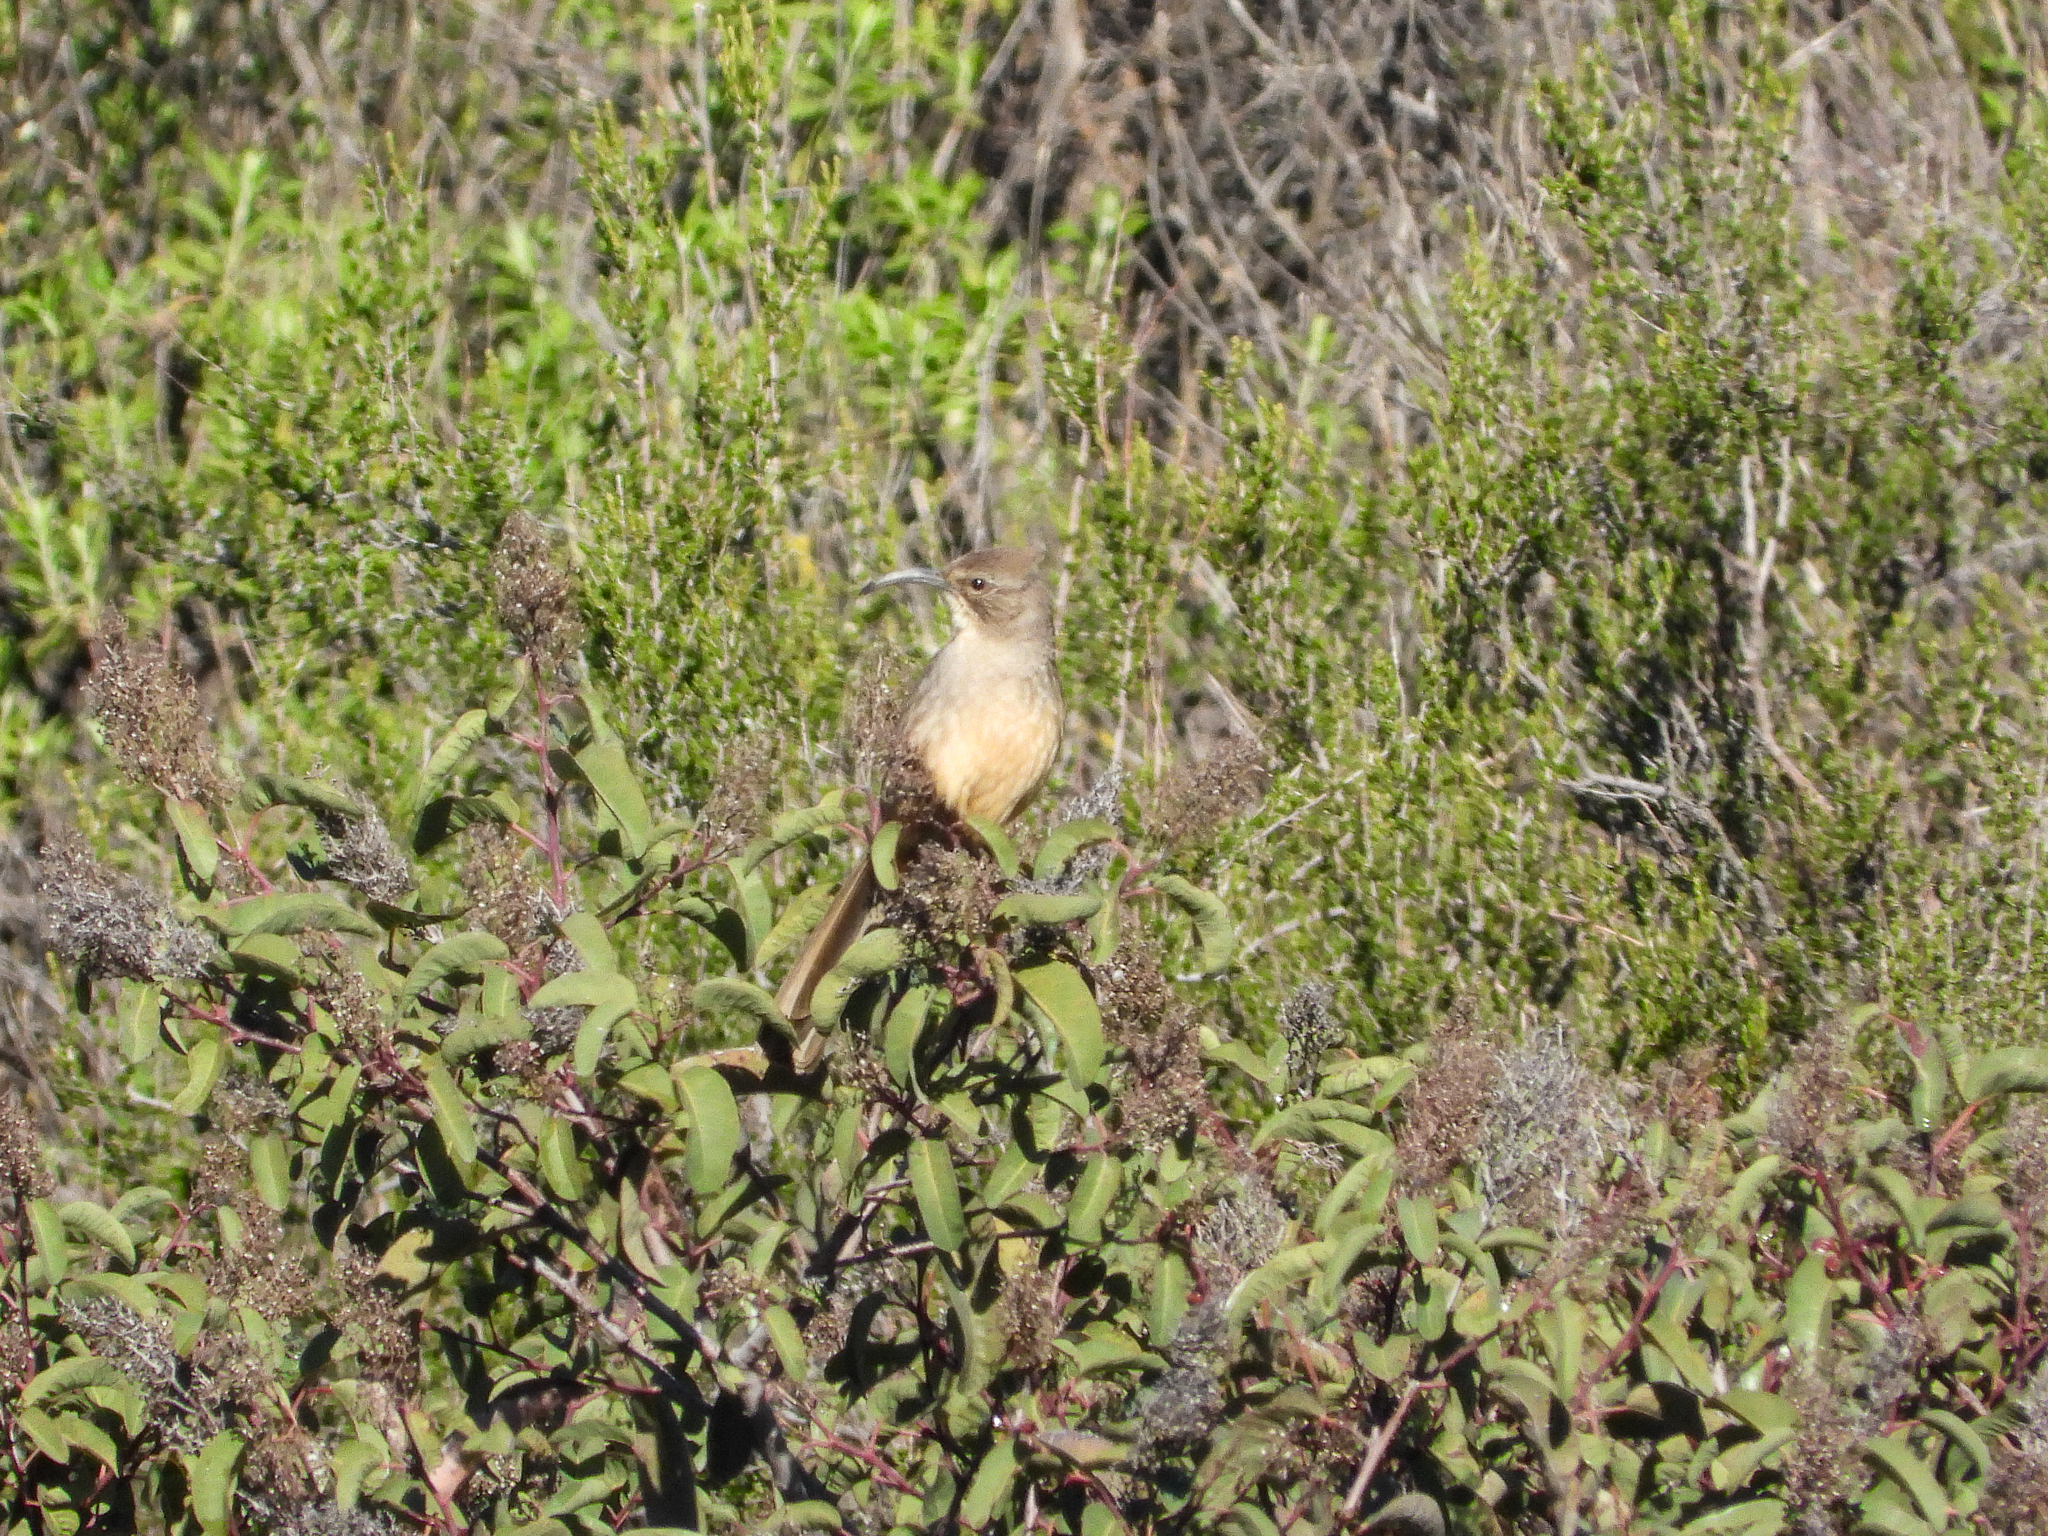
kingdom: Animalia
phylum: Chordata
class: Aves
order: Passeriformes
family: Mimidae
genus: Toxostoma
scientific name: Toxostoma redivivum
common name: California thrasher
